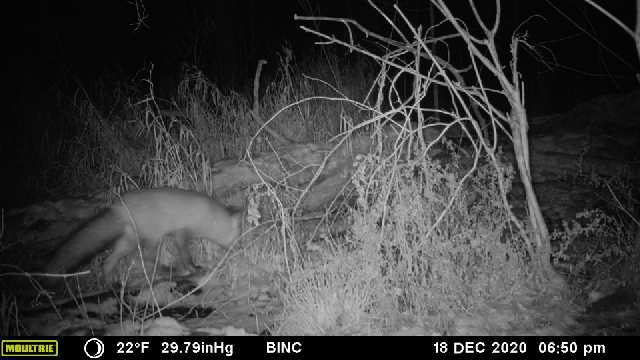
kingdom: Animalia
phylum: Chordata
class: Mammalia
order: Carnivora
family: Canidae
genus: Vulpes
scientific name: Vulpes vulpes
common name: Red fox
